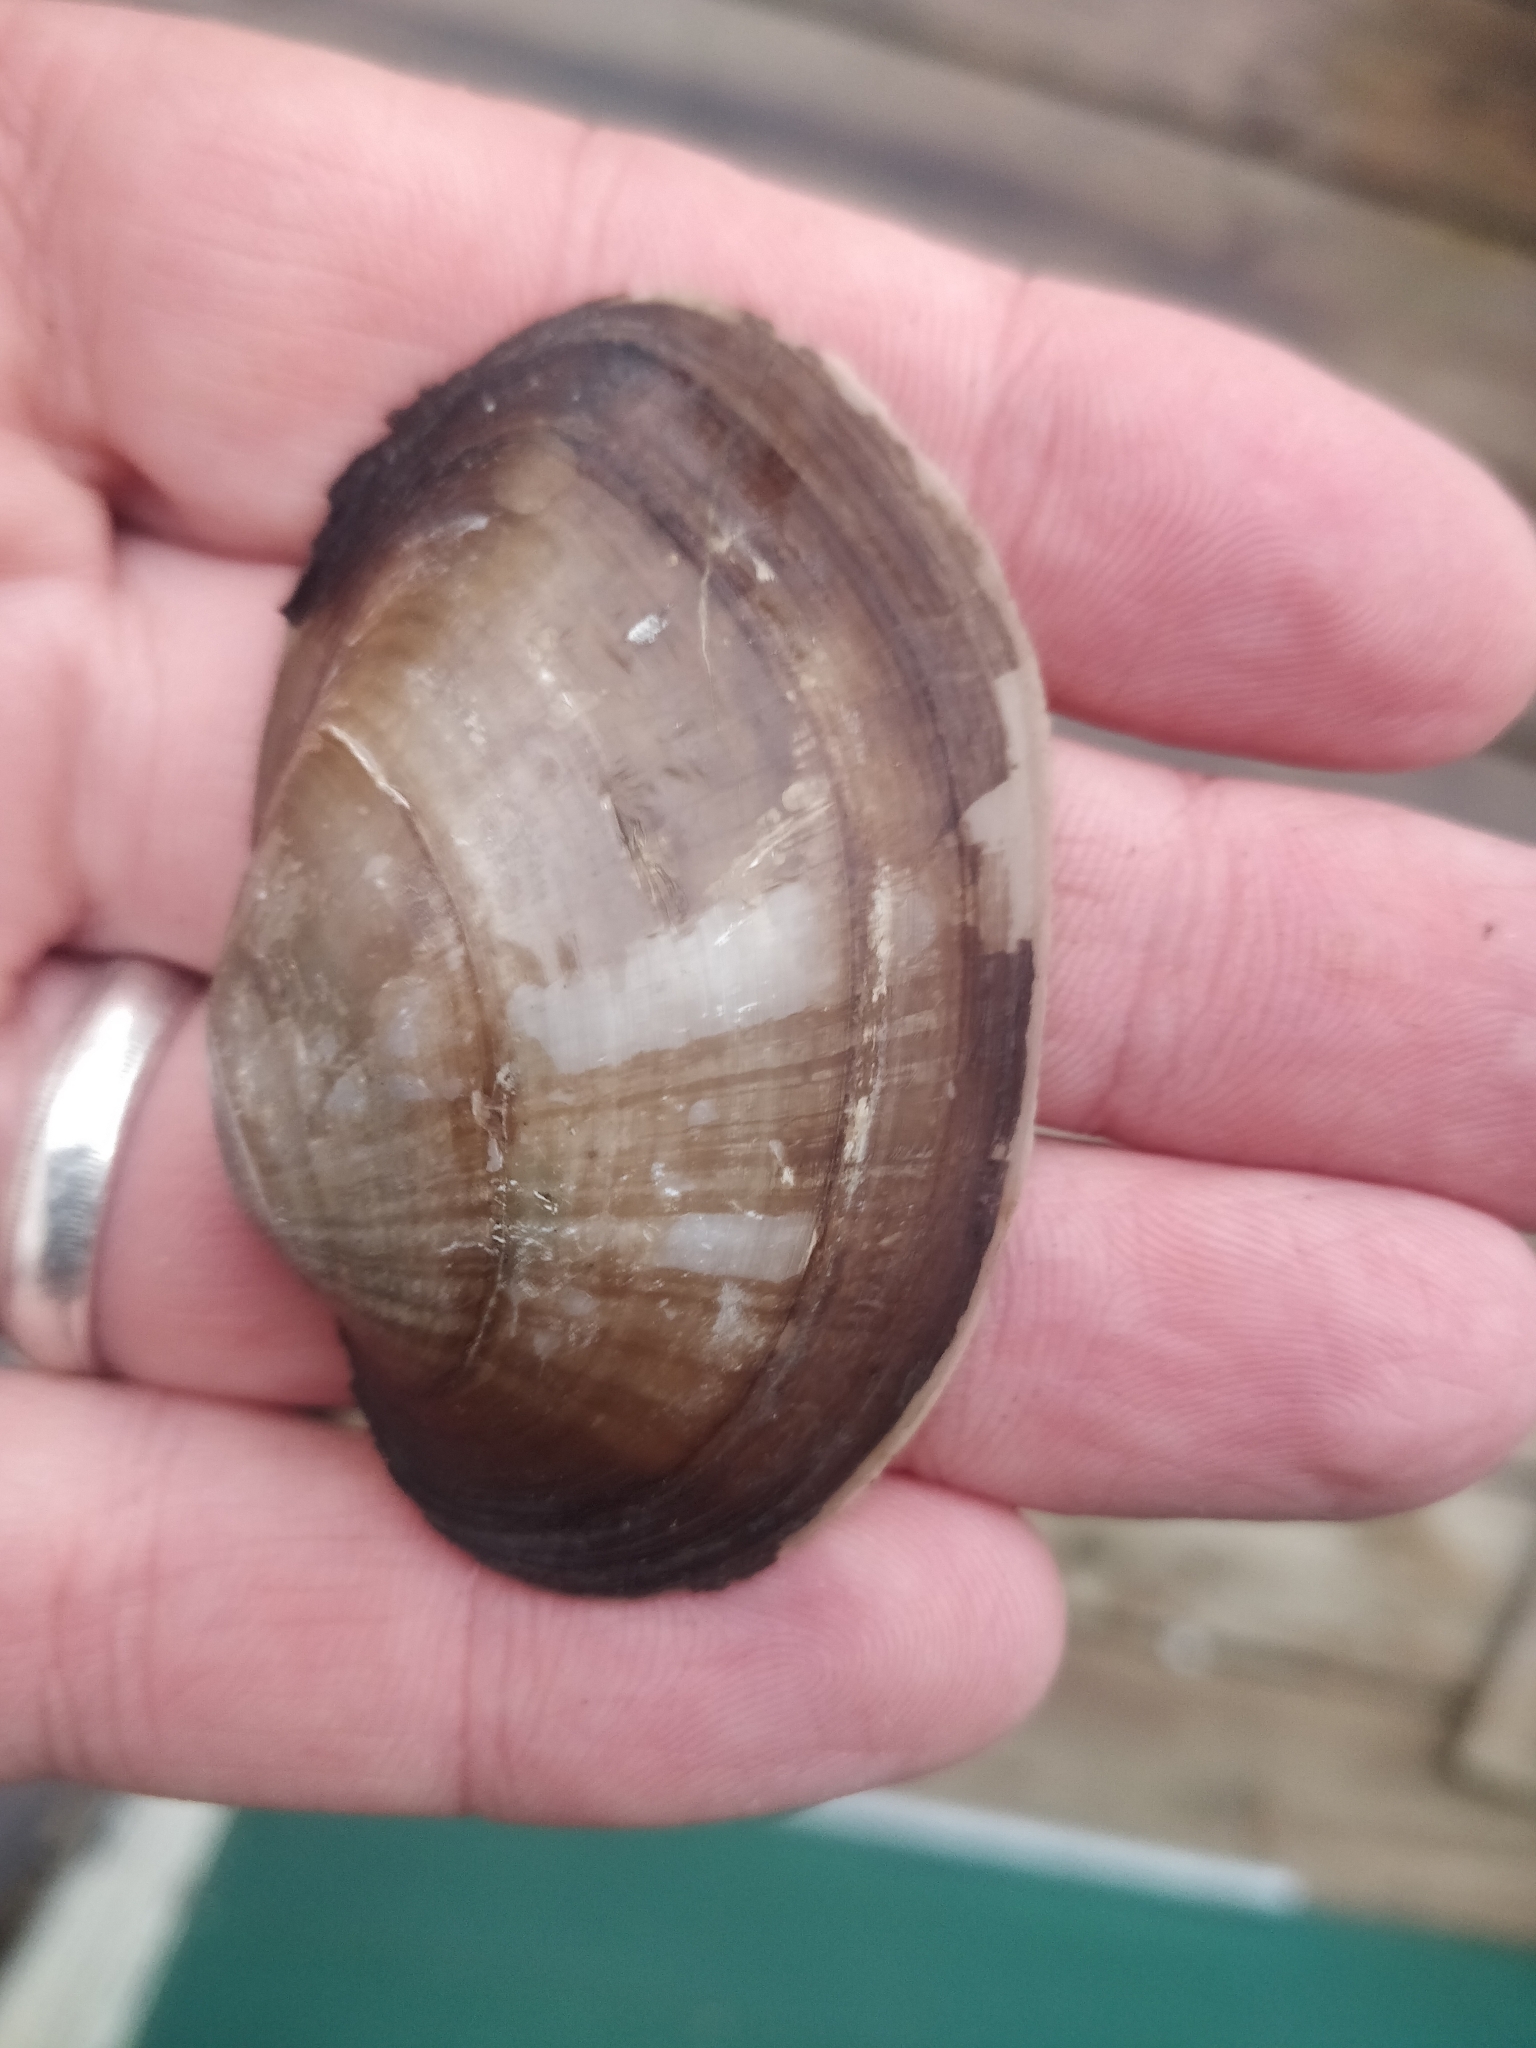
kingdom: Animalia
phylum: Mollusca
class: Bivalvia
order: Unionida
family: Unionidae
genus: Lampsilis
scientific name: Lampsilis cardium
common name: Plain pocketbook
